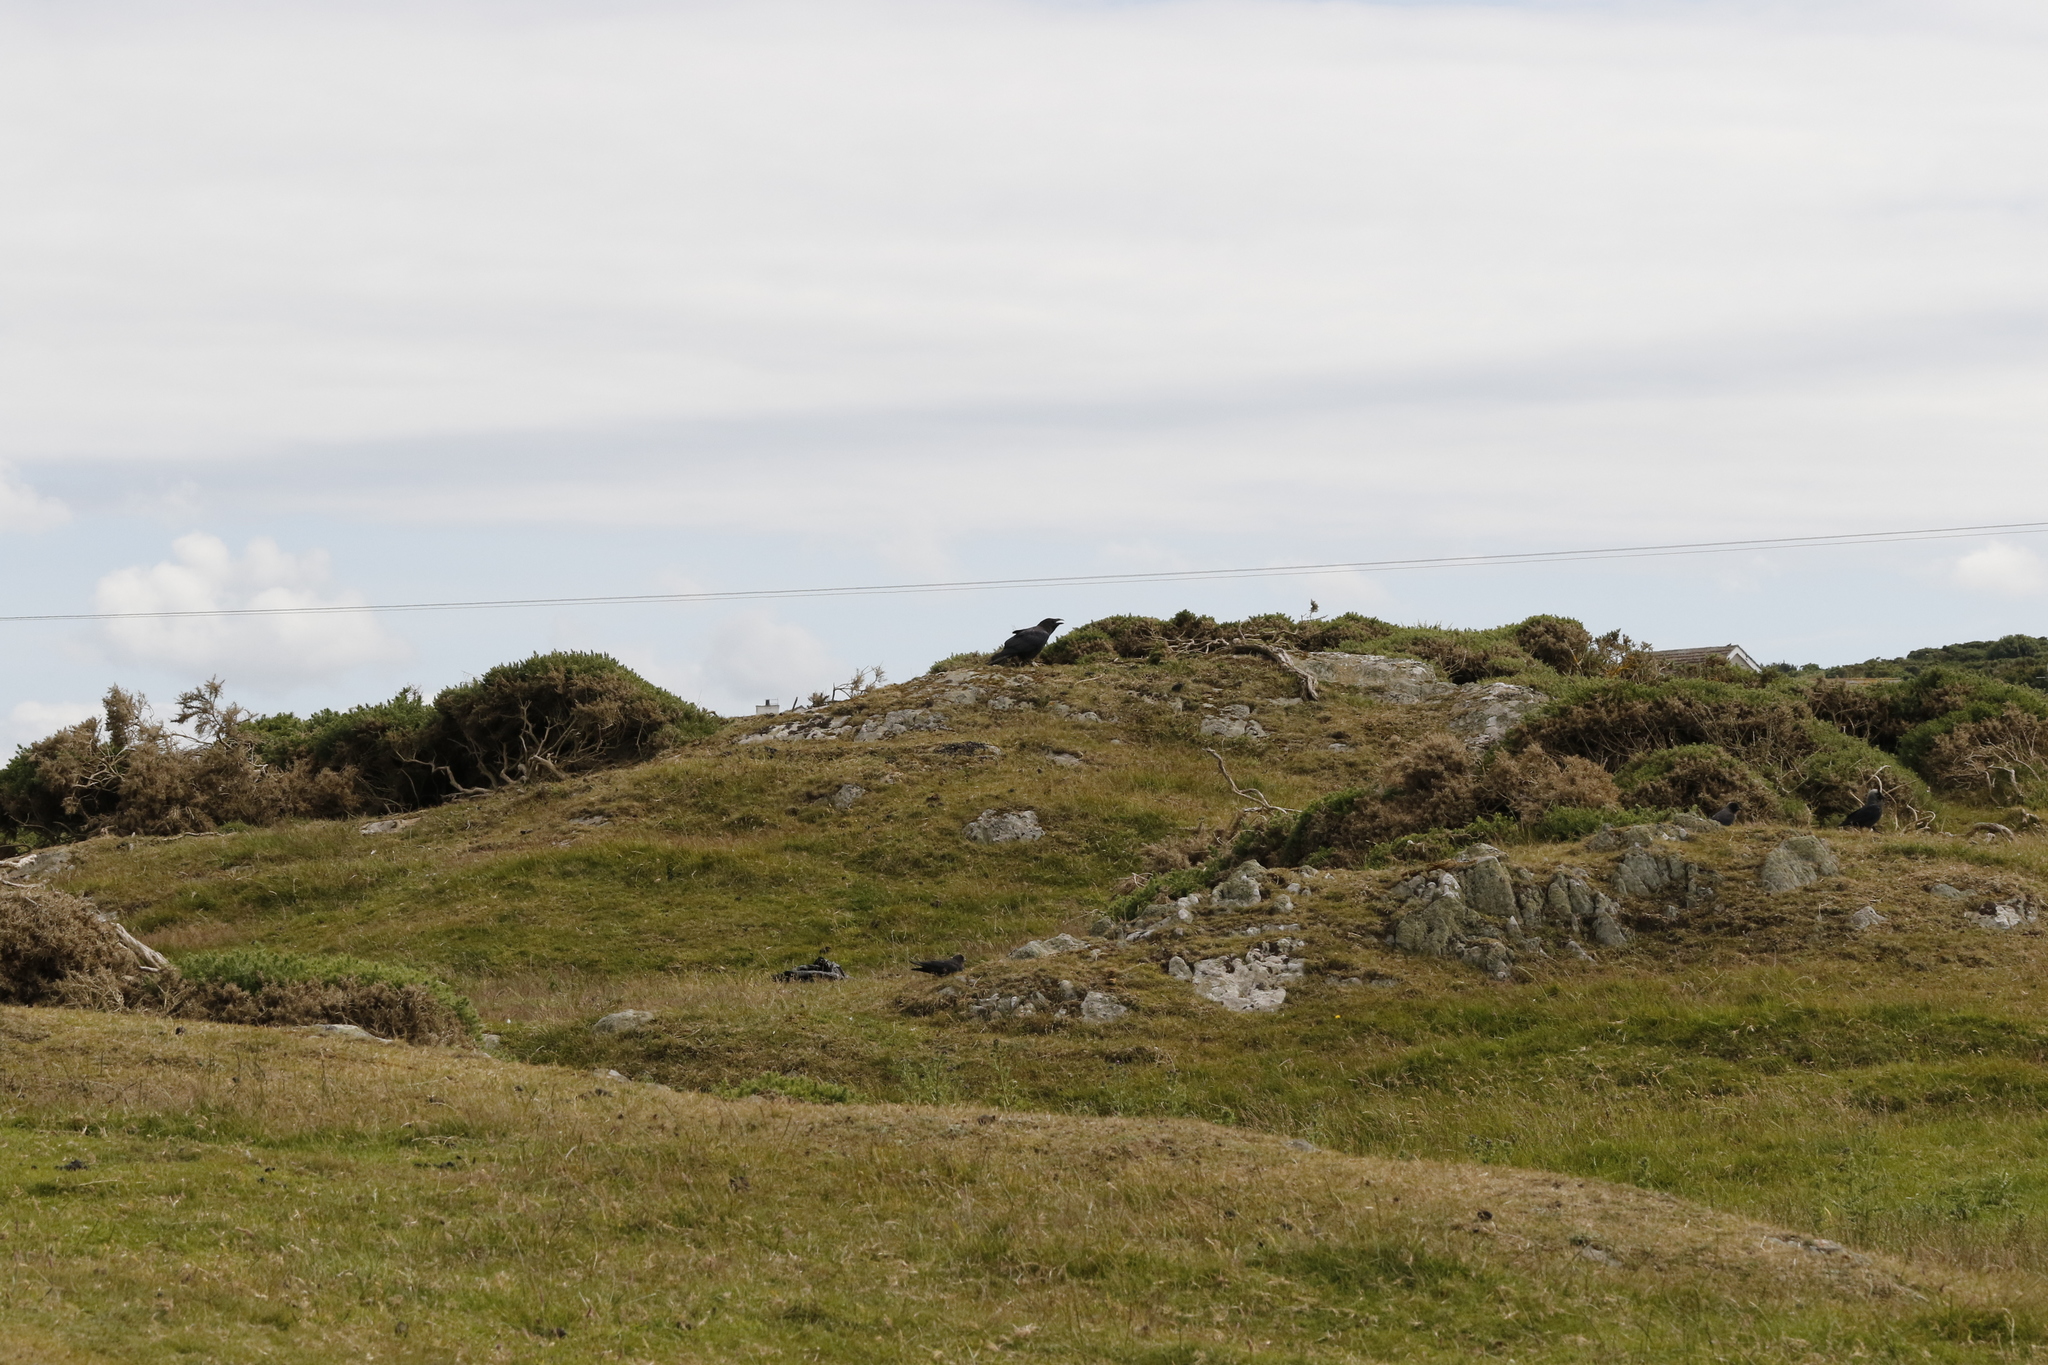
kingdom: Animalia
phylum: Chordata
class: Aves
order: Passeriformes
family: Corvidae
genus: Corvus
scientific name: Corvus corax
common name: Common raven
